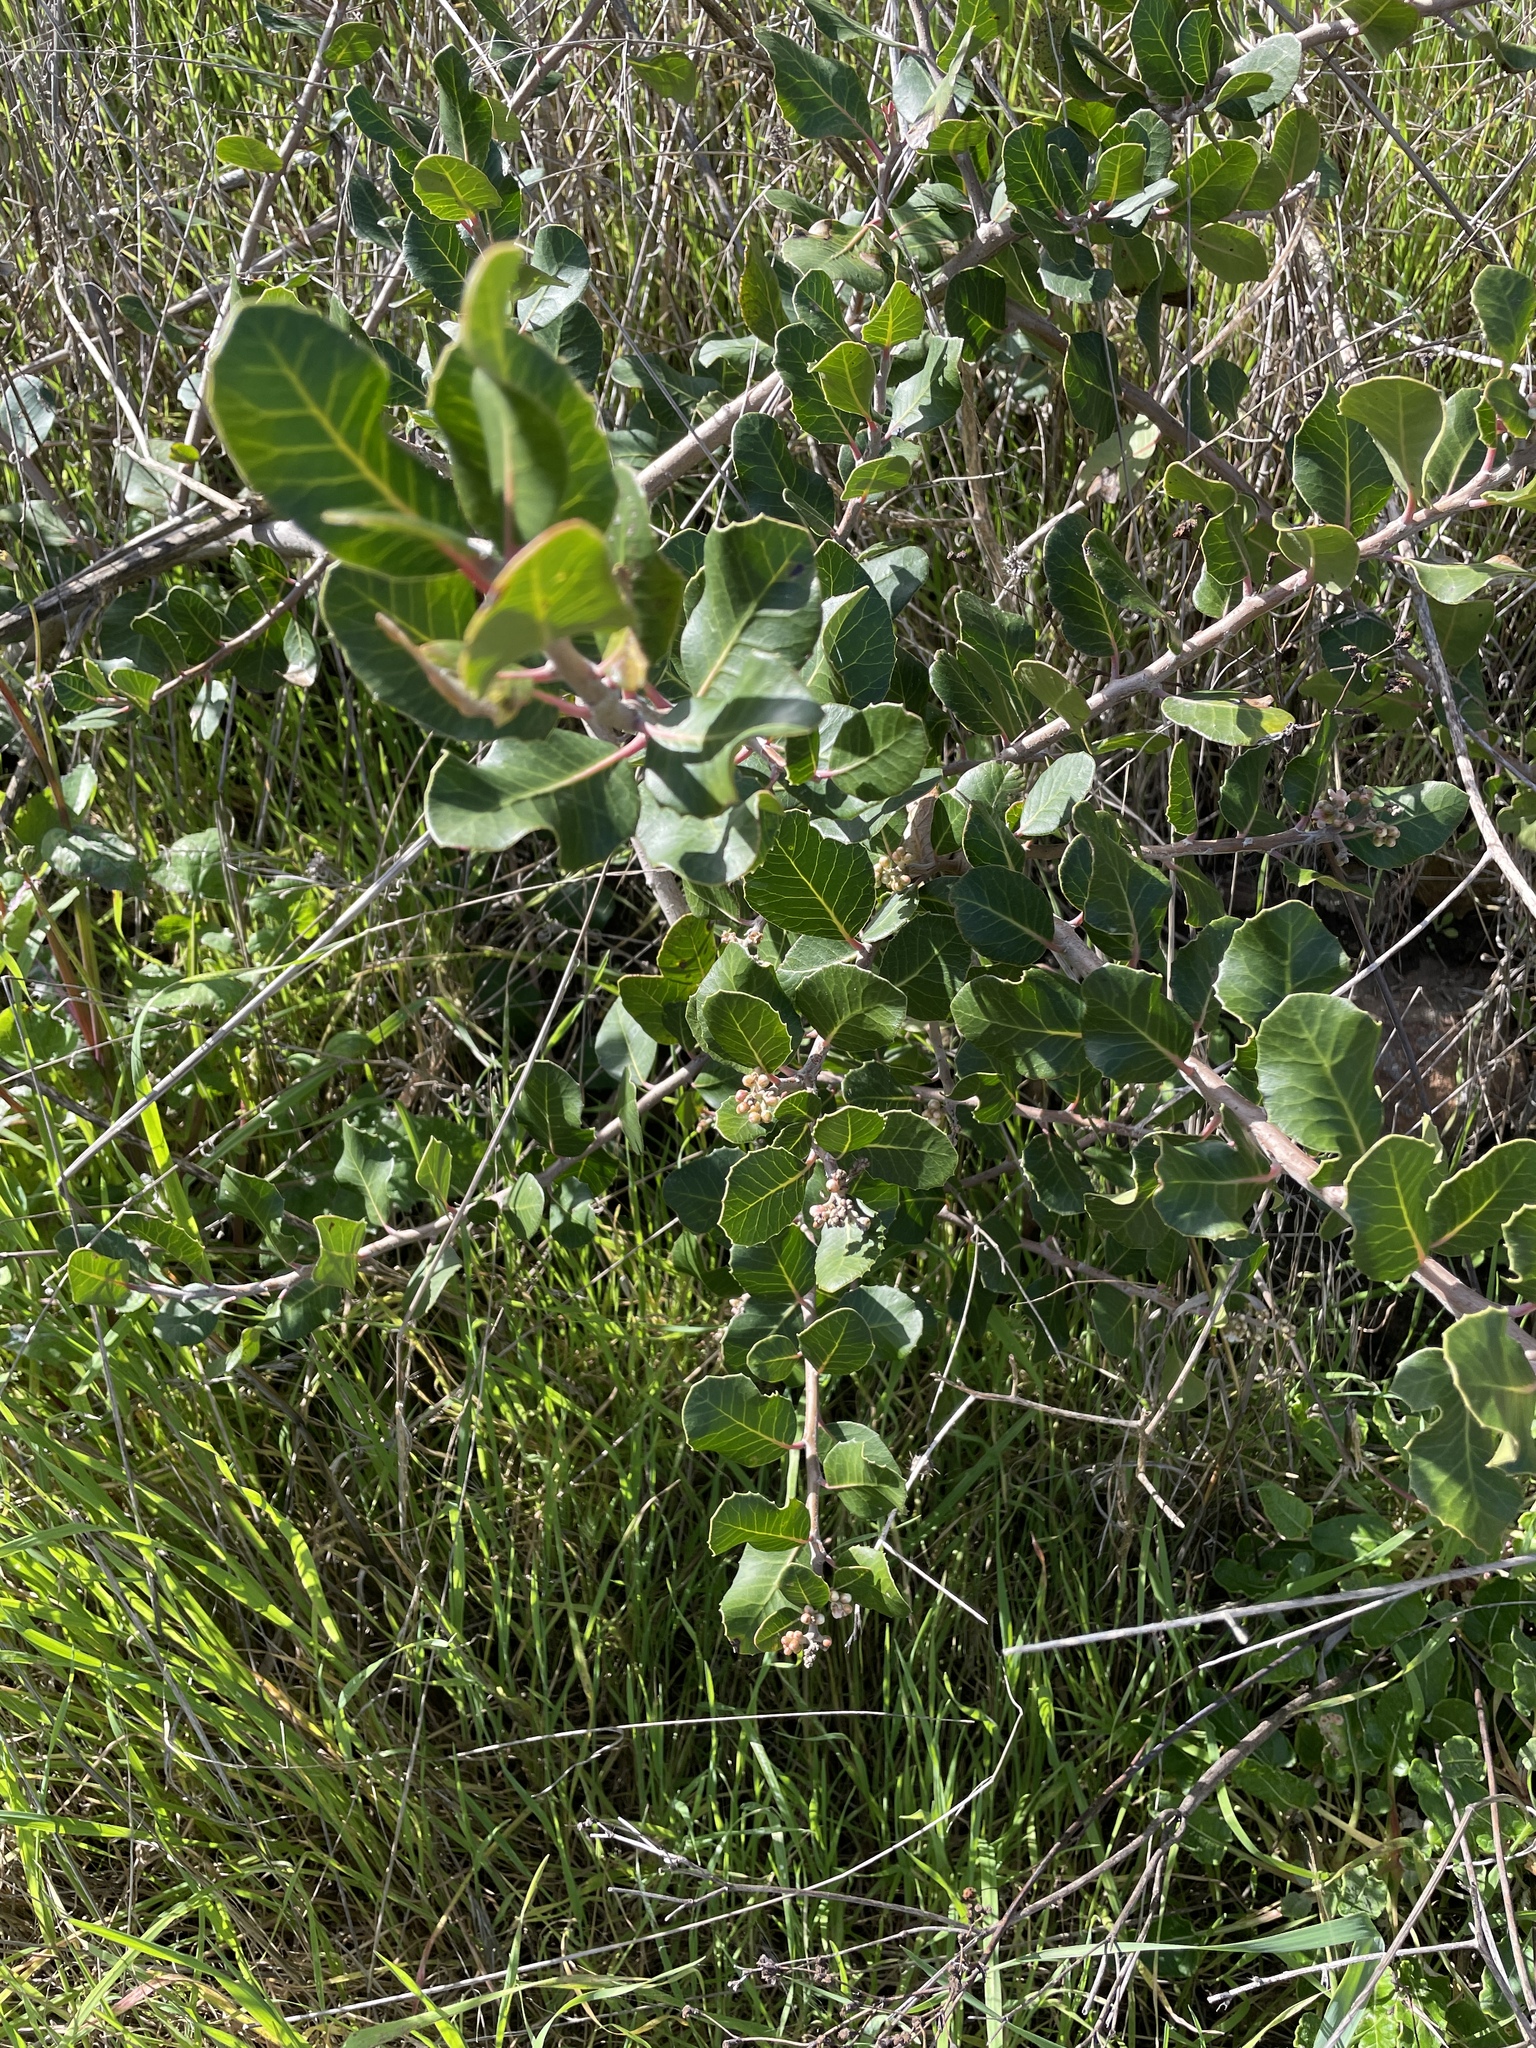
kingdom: Plantae
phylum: Tracheophyta
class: Magnoliopsida
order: Sapindales
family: Anacardiaceae
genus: Rhus
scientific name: Rhus integrifolia
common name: Lemonade sumac
